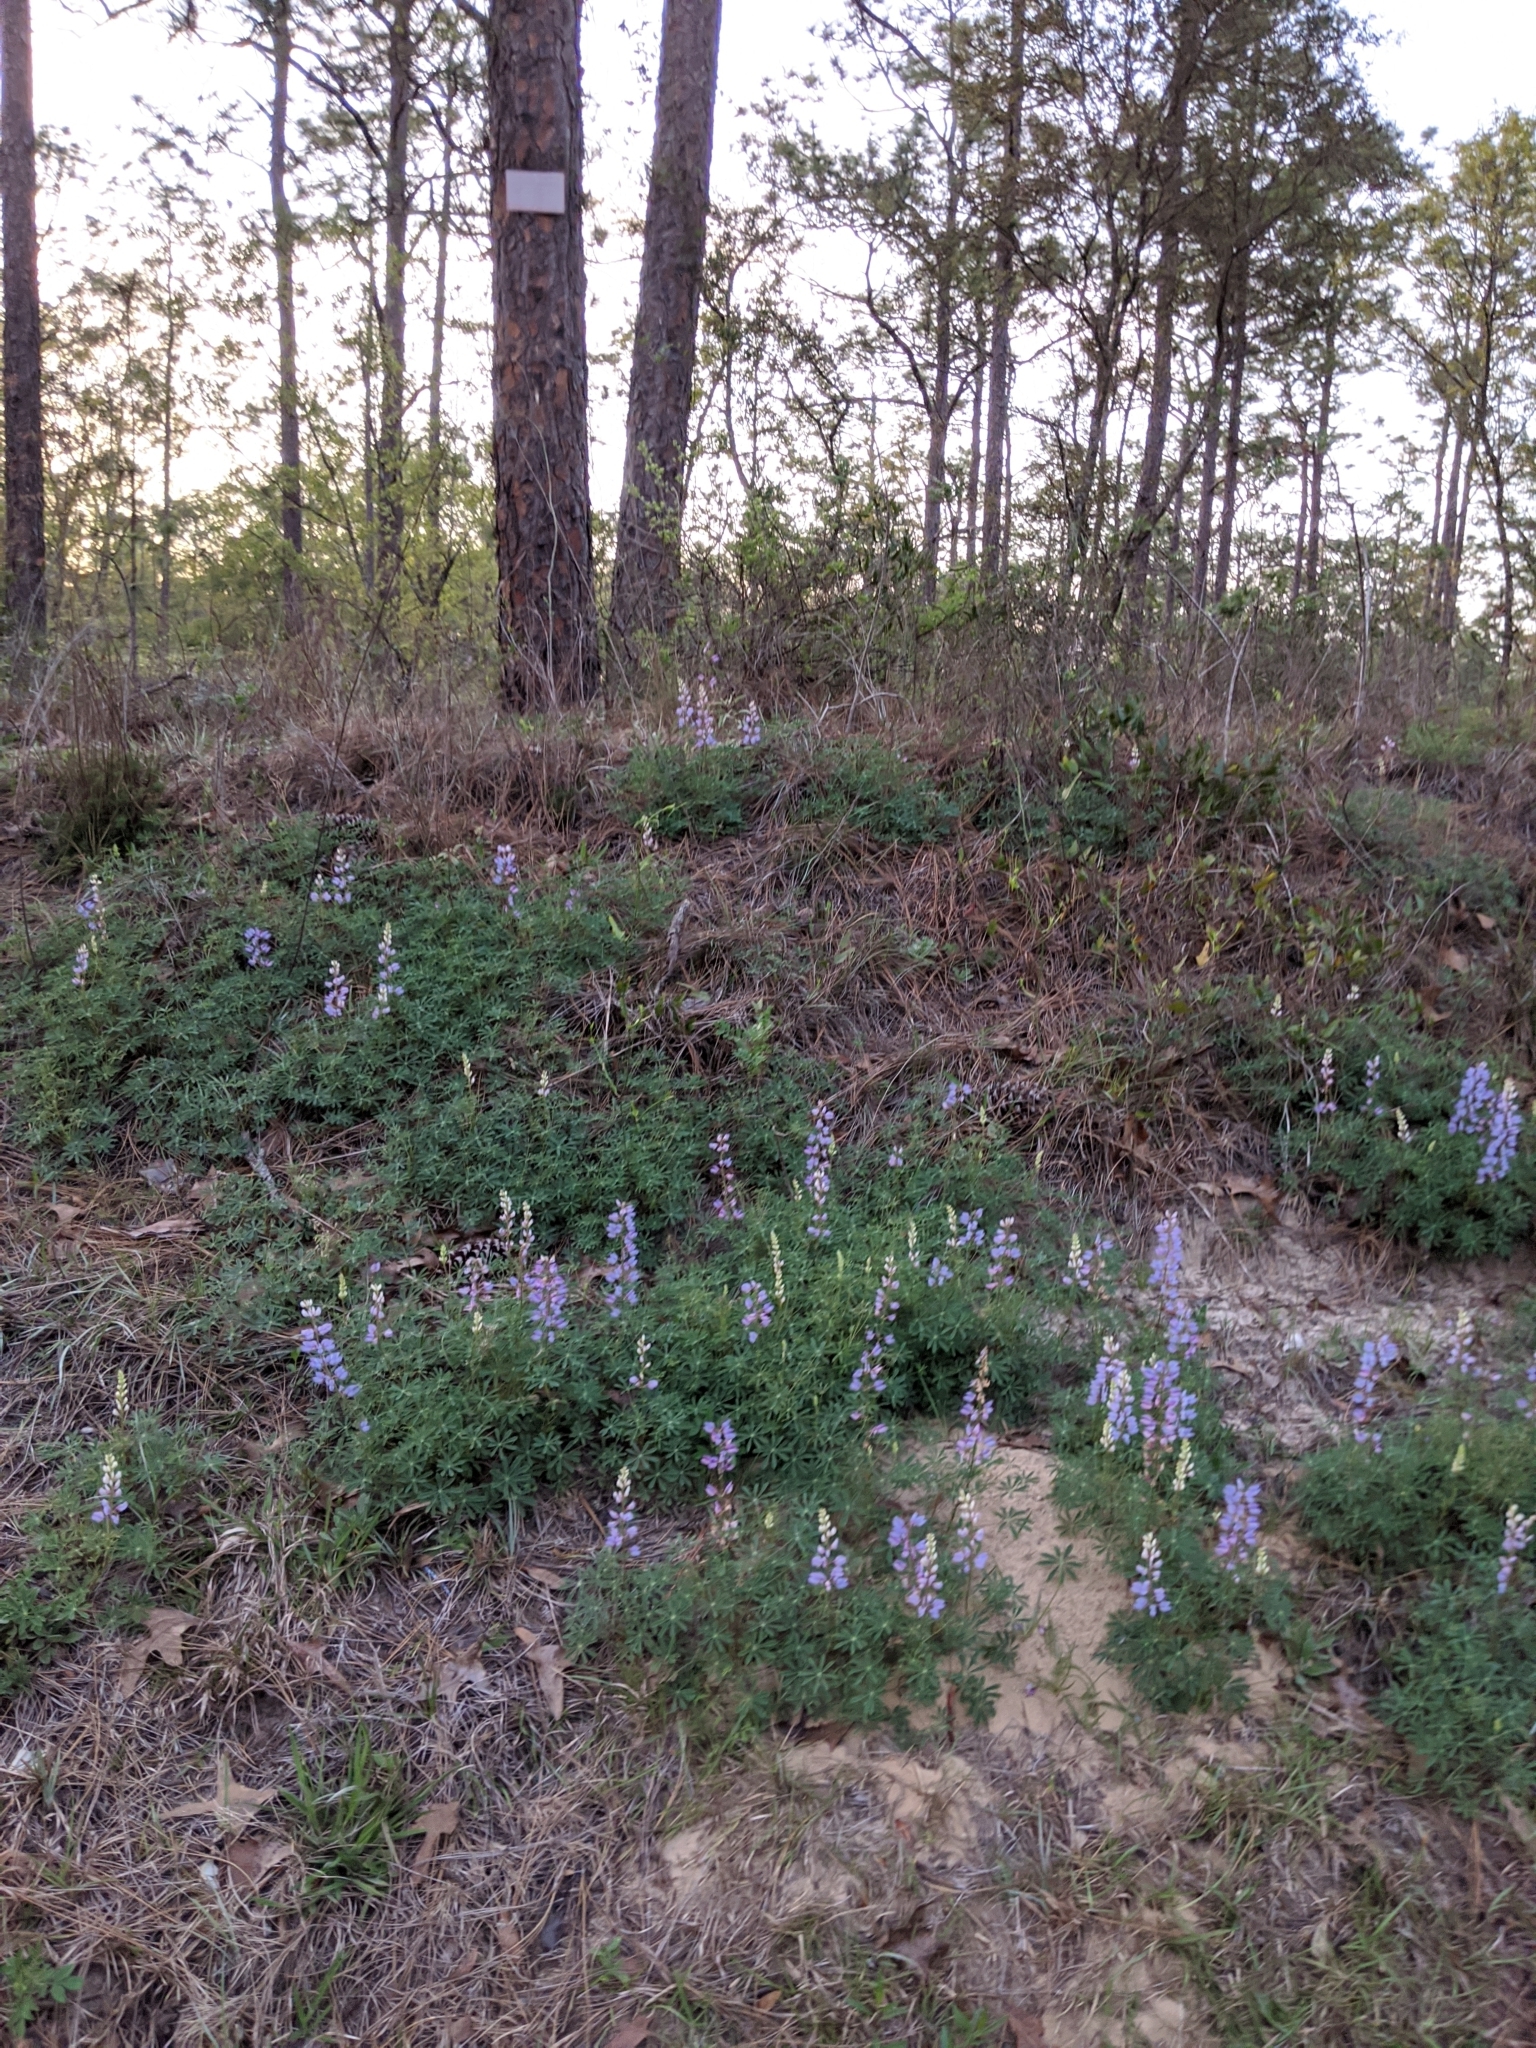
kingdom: Plantae
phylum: Tracheophyta
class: Magnoliopsida
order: Fabales
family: Fabaceae
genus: Lupinus
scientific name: Lupinus perennis
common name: Sundial lupine
